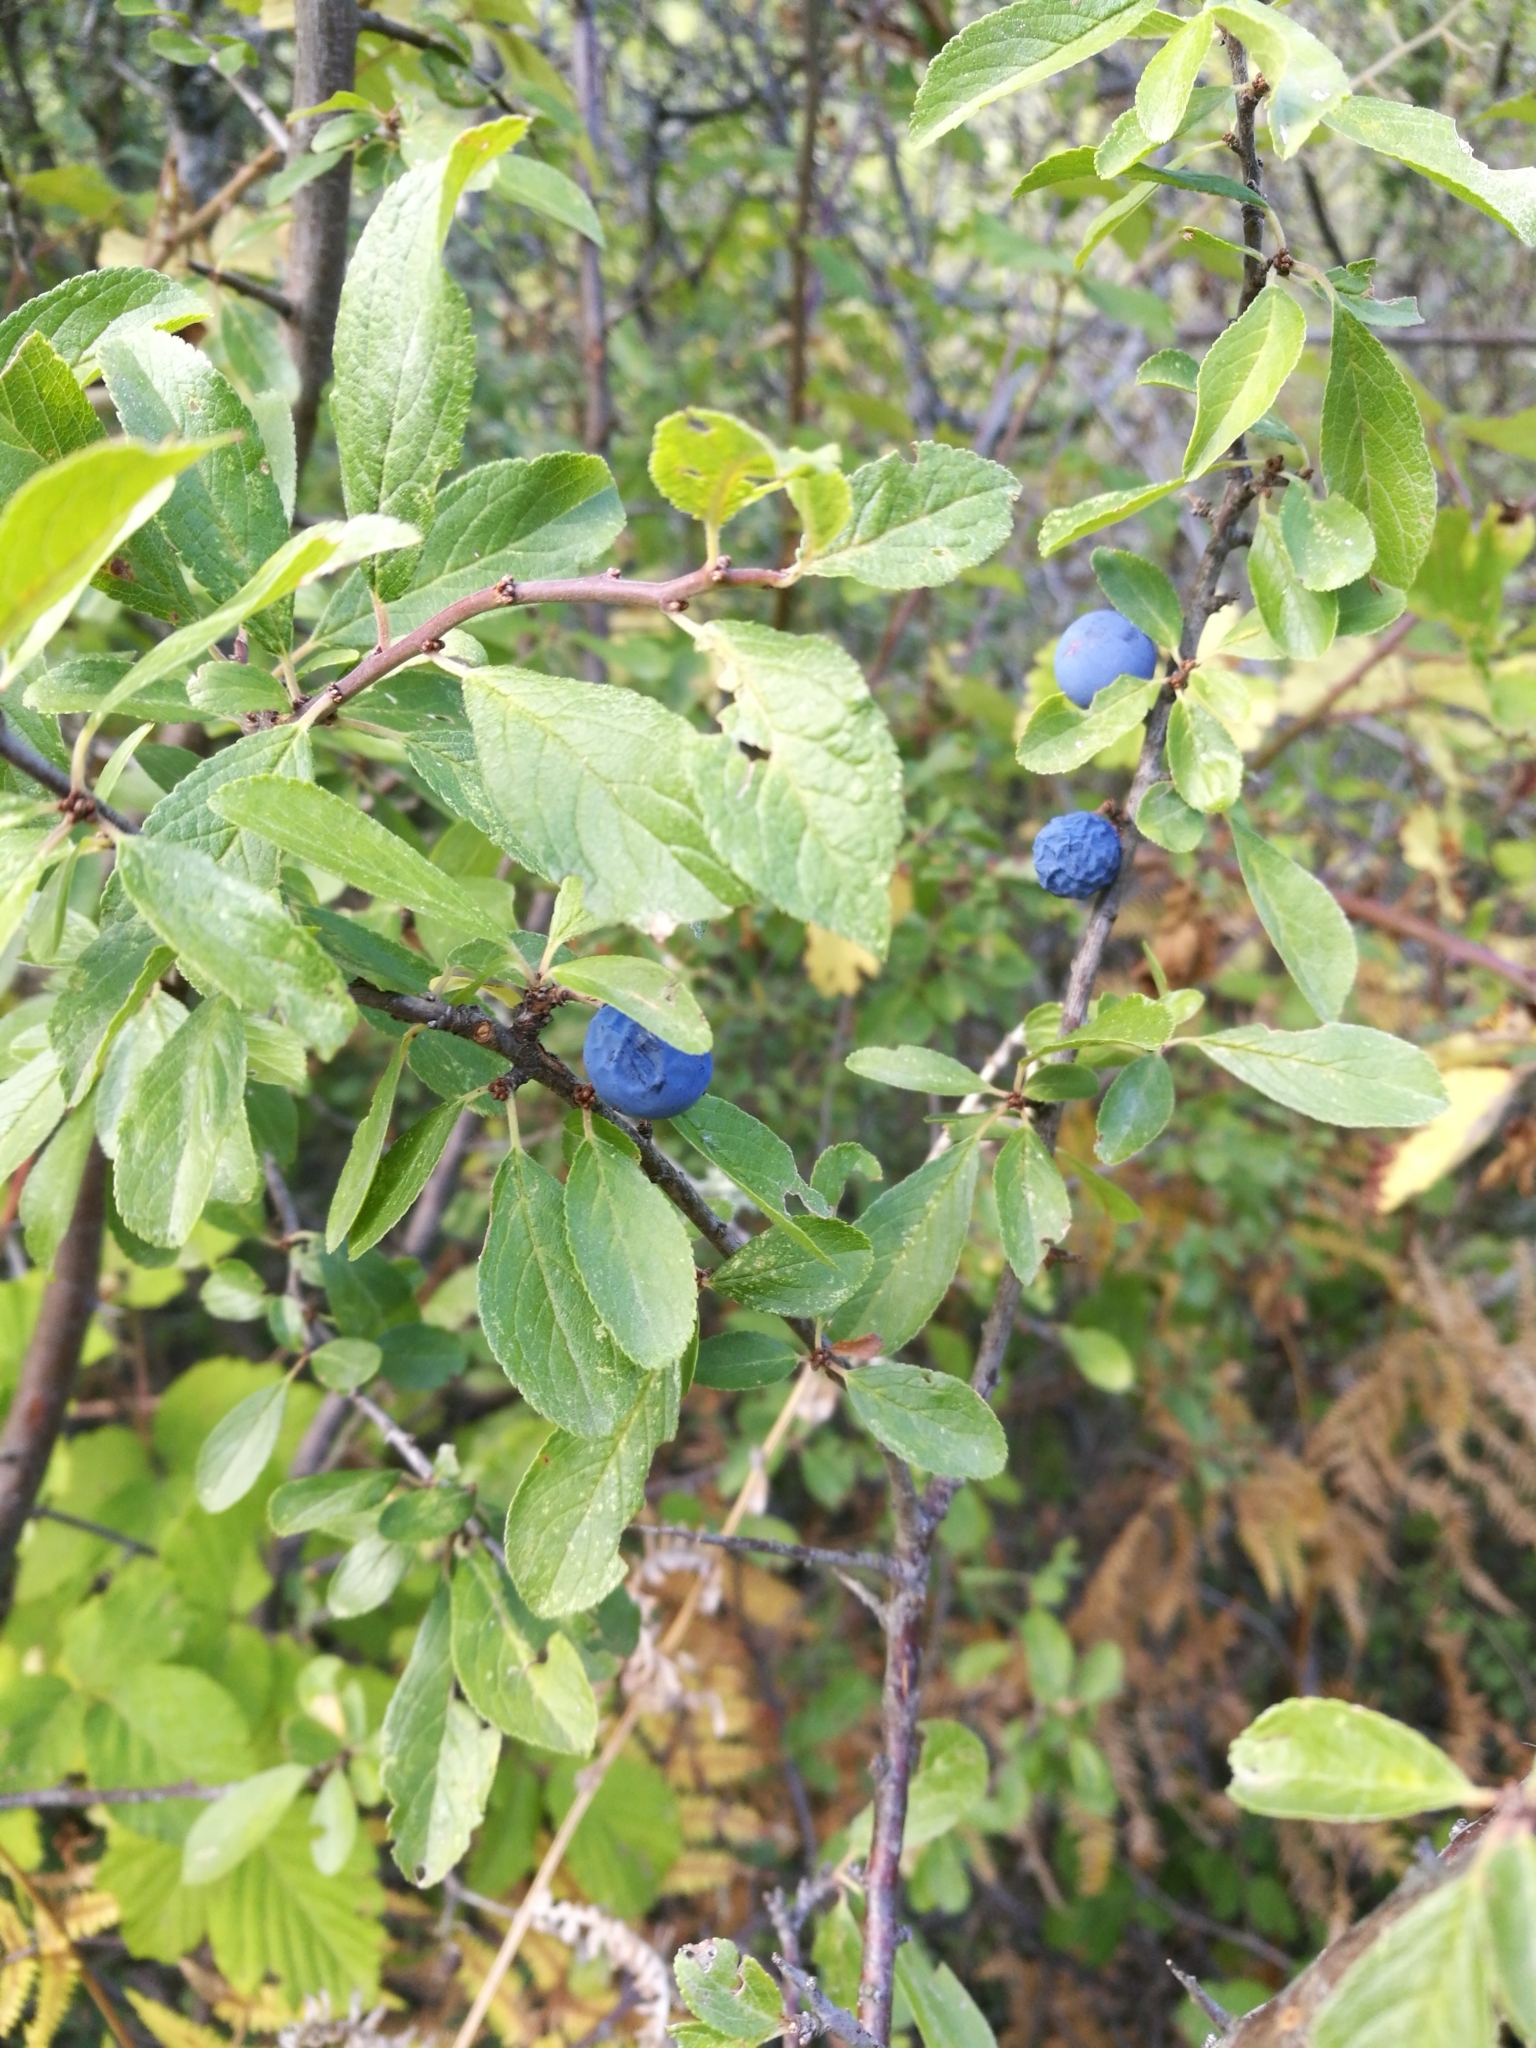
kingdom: Plantae
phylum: Tracheophyta
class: Magnoliopsida
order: Rosales
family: Rosaceae
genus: Prunus
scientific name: Prunus spinosa
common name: Blackthorn
